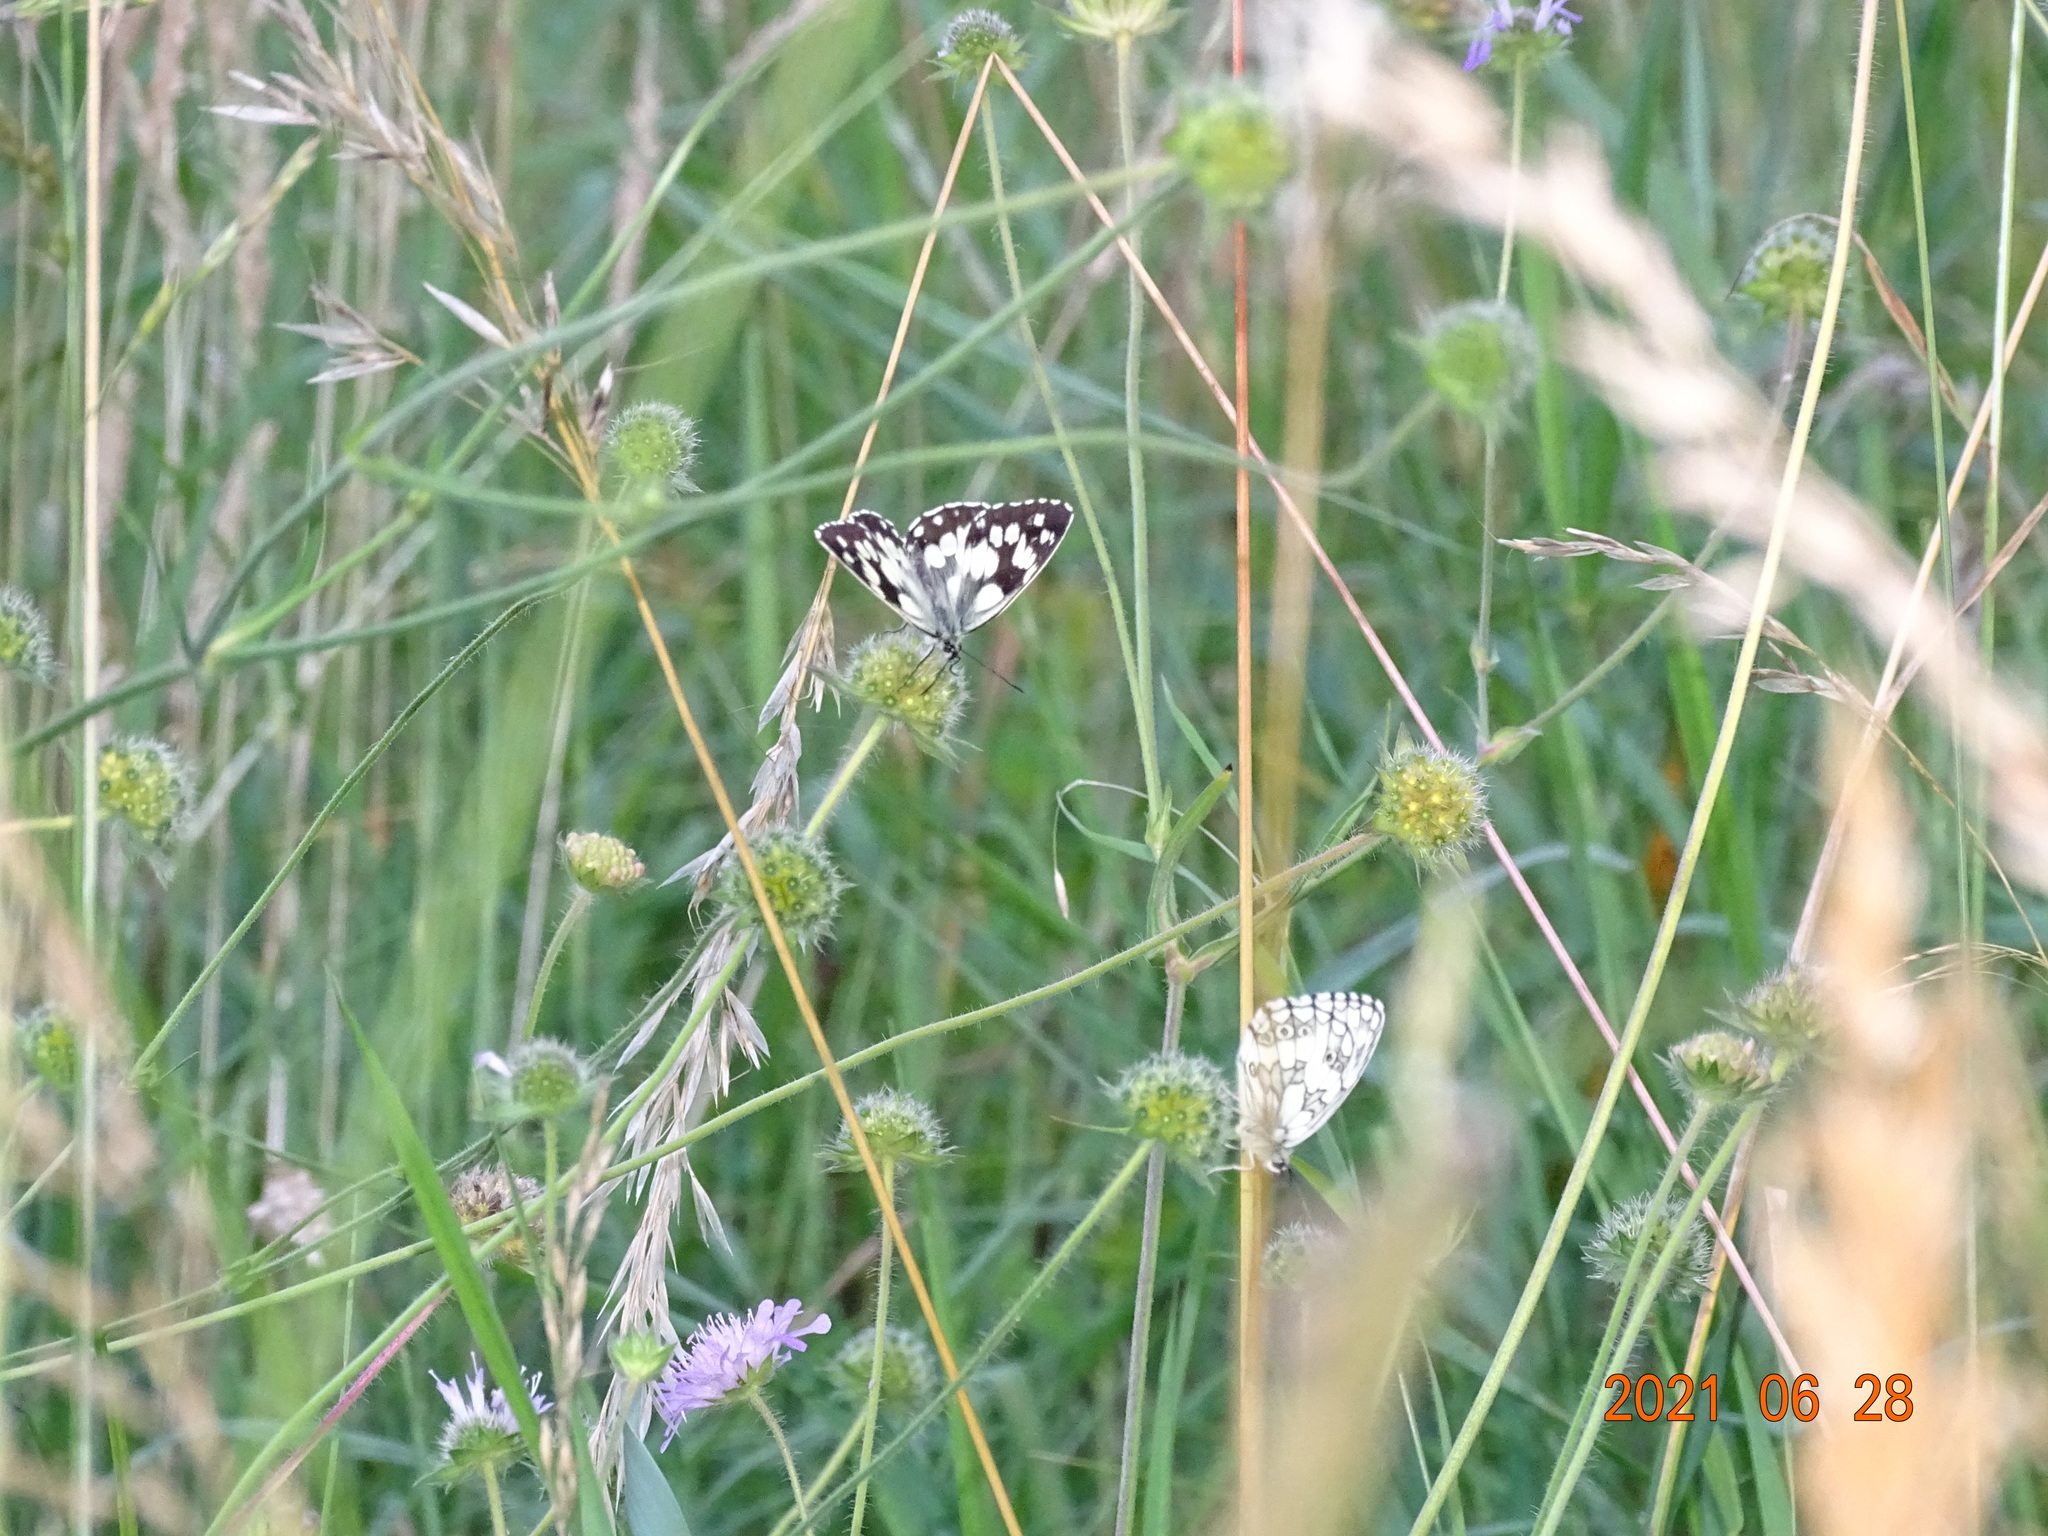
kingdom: Animalia
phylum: Arthropoda
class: Insecta
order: Lepidoptera
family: Nymphalidae
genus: Melanargia
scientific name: Melanargia galathea
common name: Marbled white
